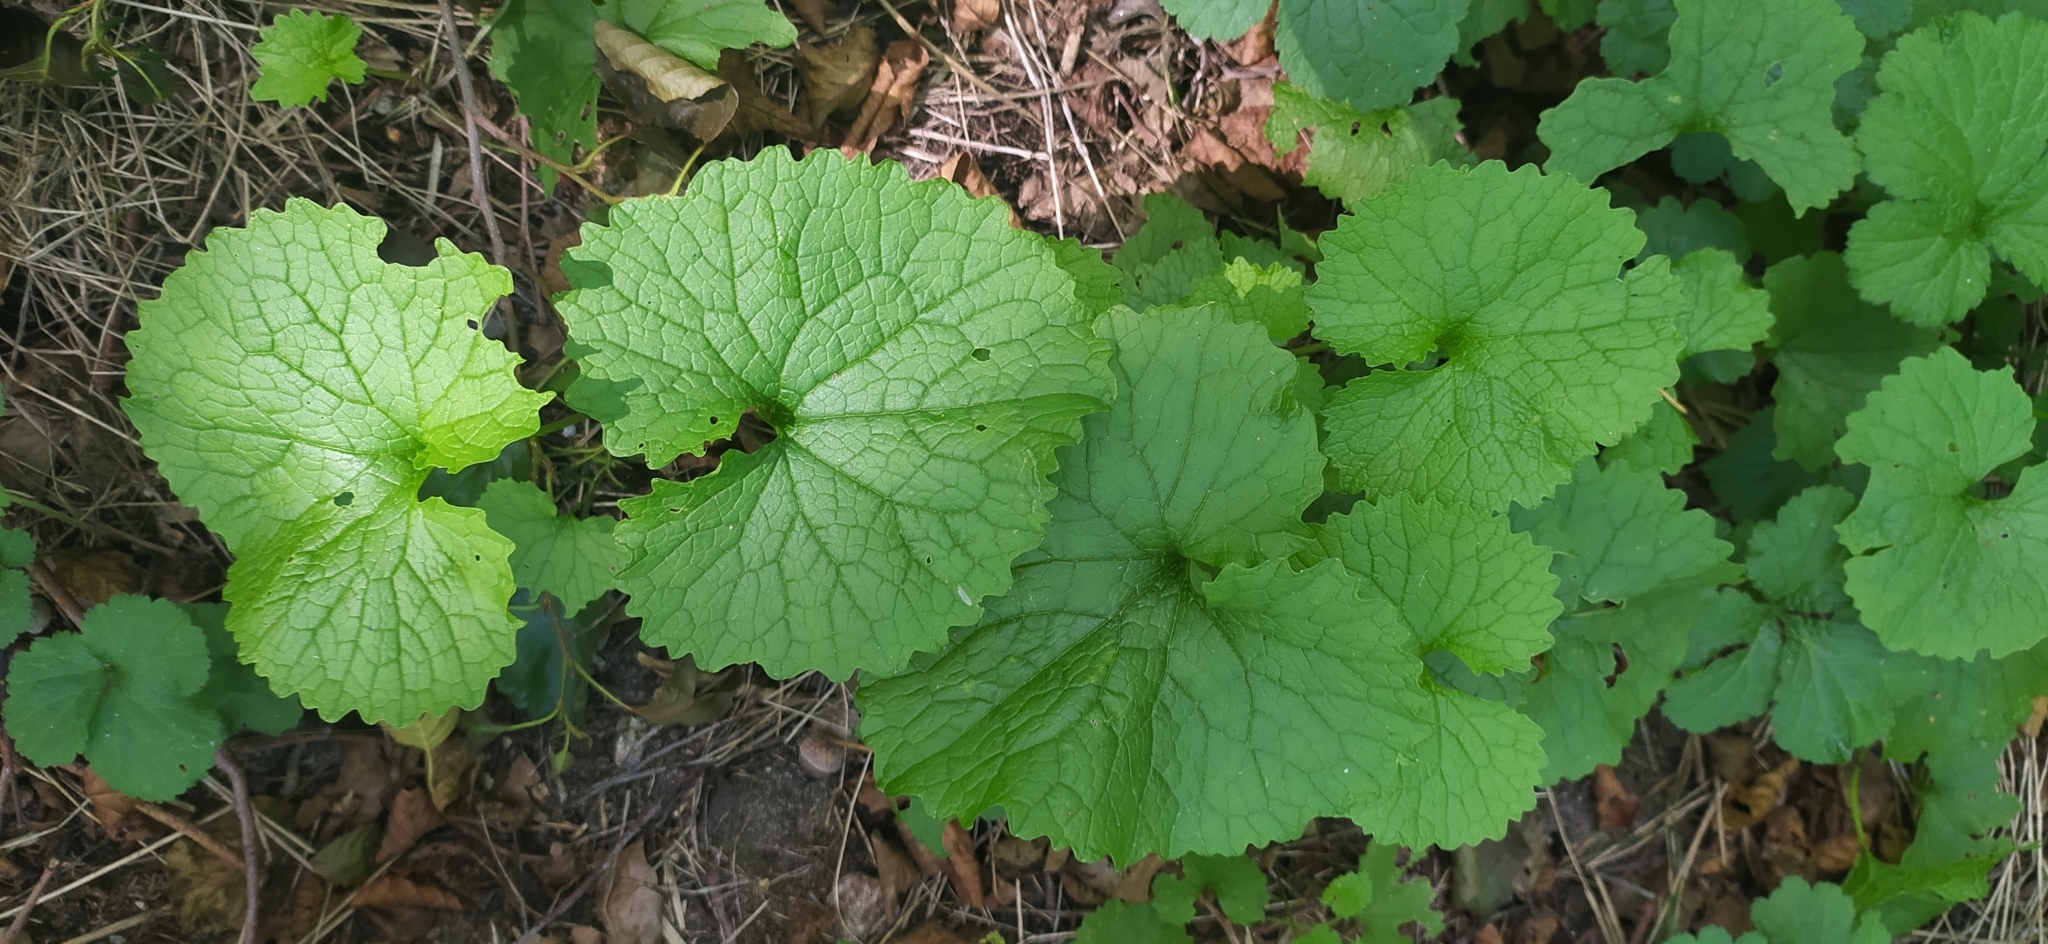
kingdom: Plantae
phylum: Tracheophyta
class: Magnoliopsida
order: Brassicales
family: Brassicaceae
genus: Alliaria
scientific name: Alliaria petiolata
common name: Garlic mustard
